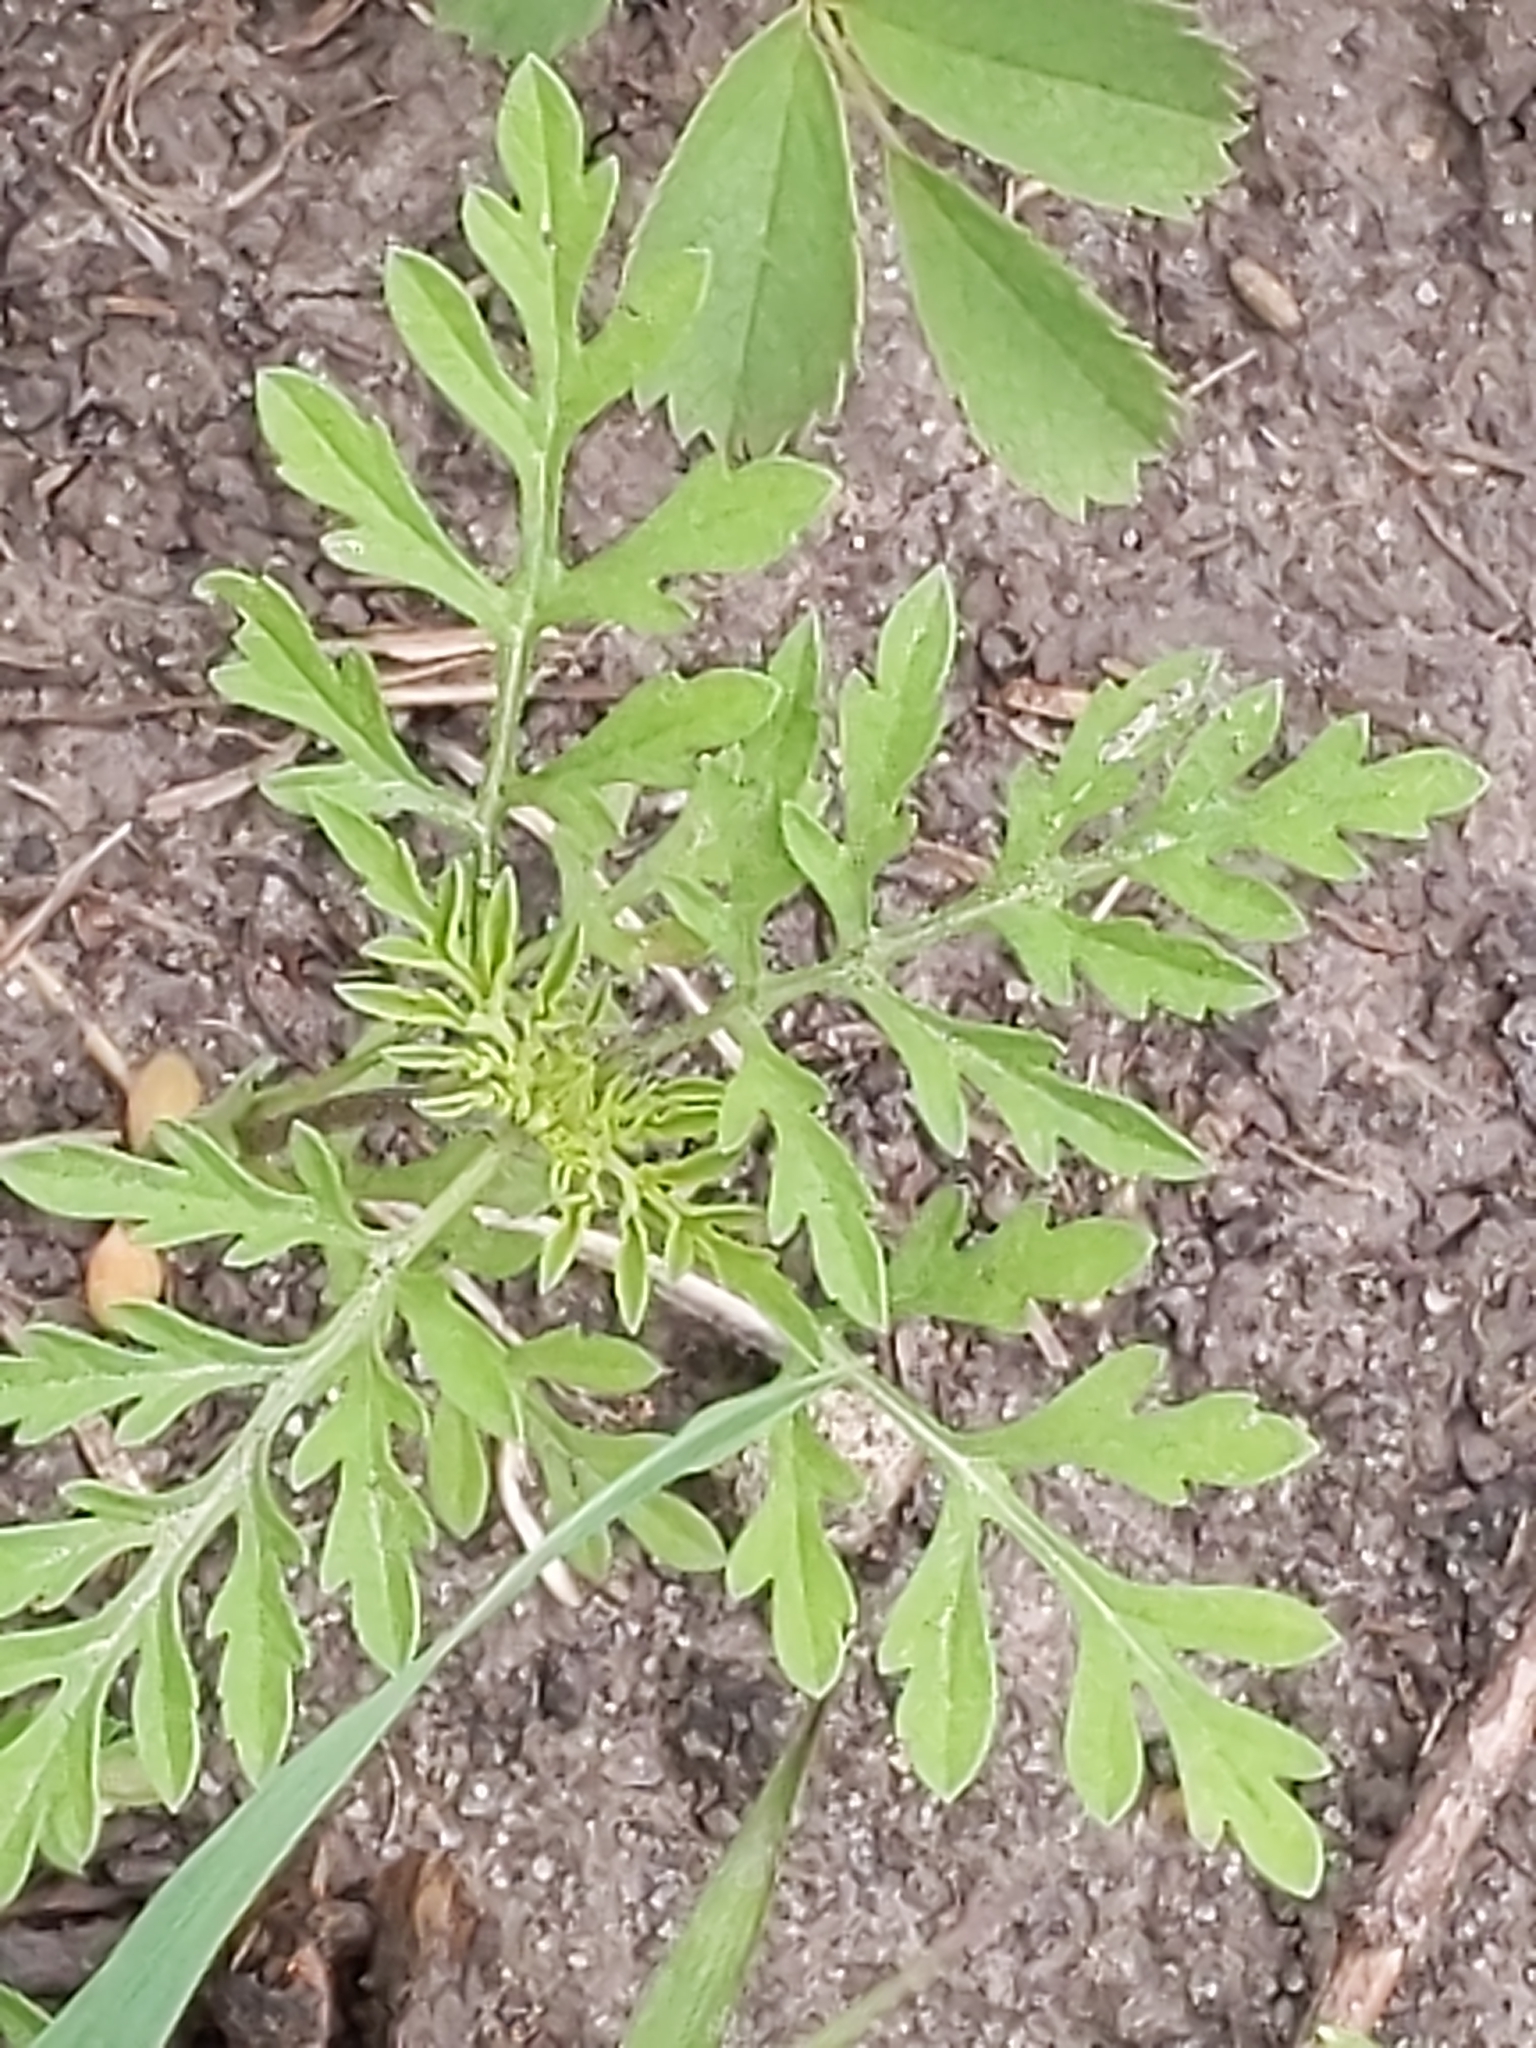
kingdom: Plantae
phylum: Tracheophyta
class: Magnoliopsida
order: Asterales
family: Asteraceae
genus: Ambrosia
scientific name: Ambrosia psilostachya
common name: Perennial ragweed
